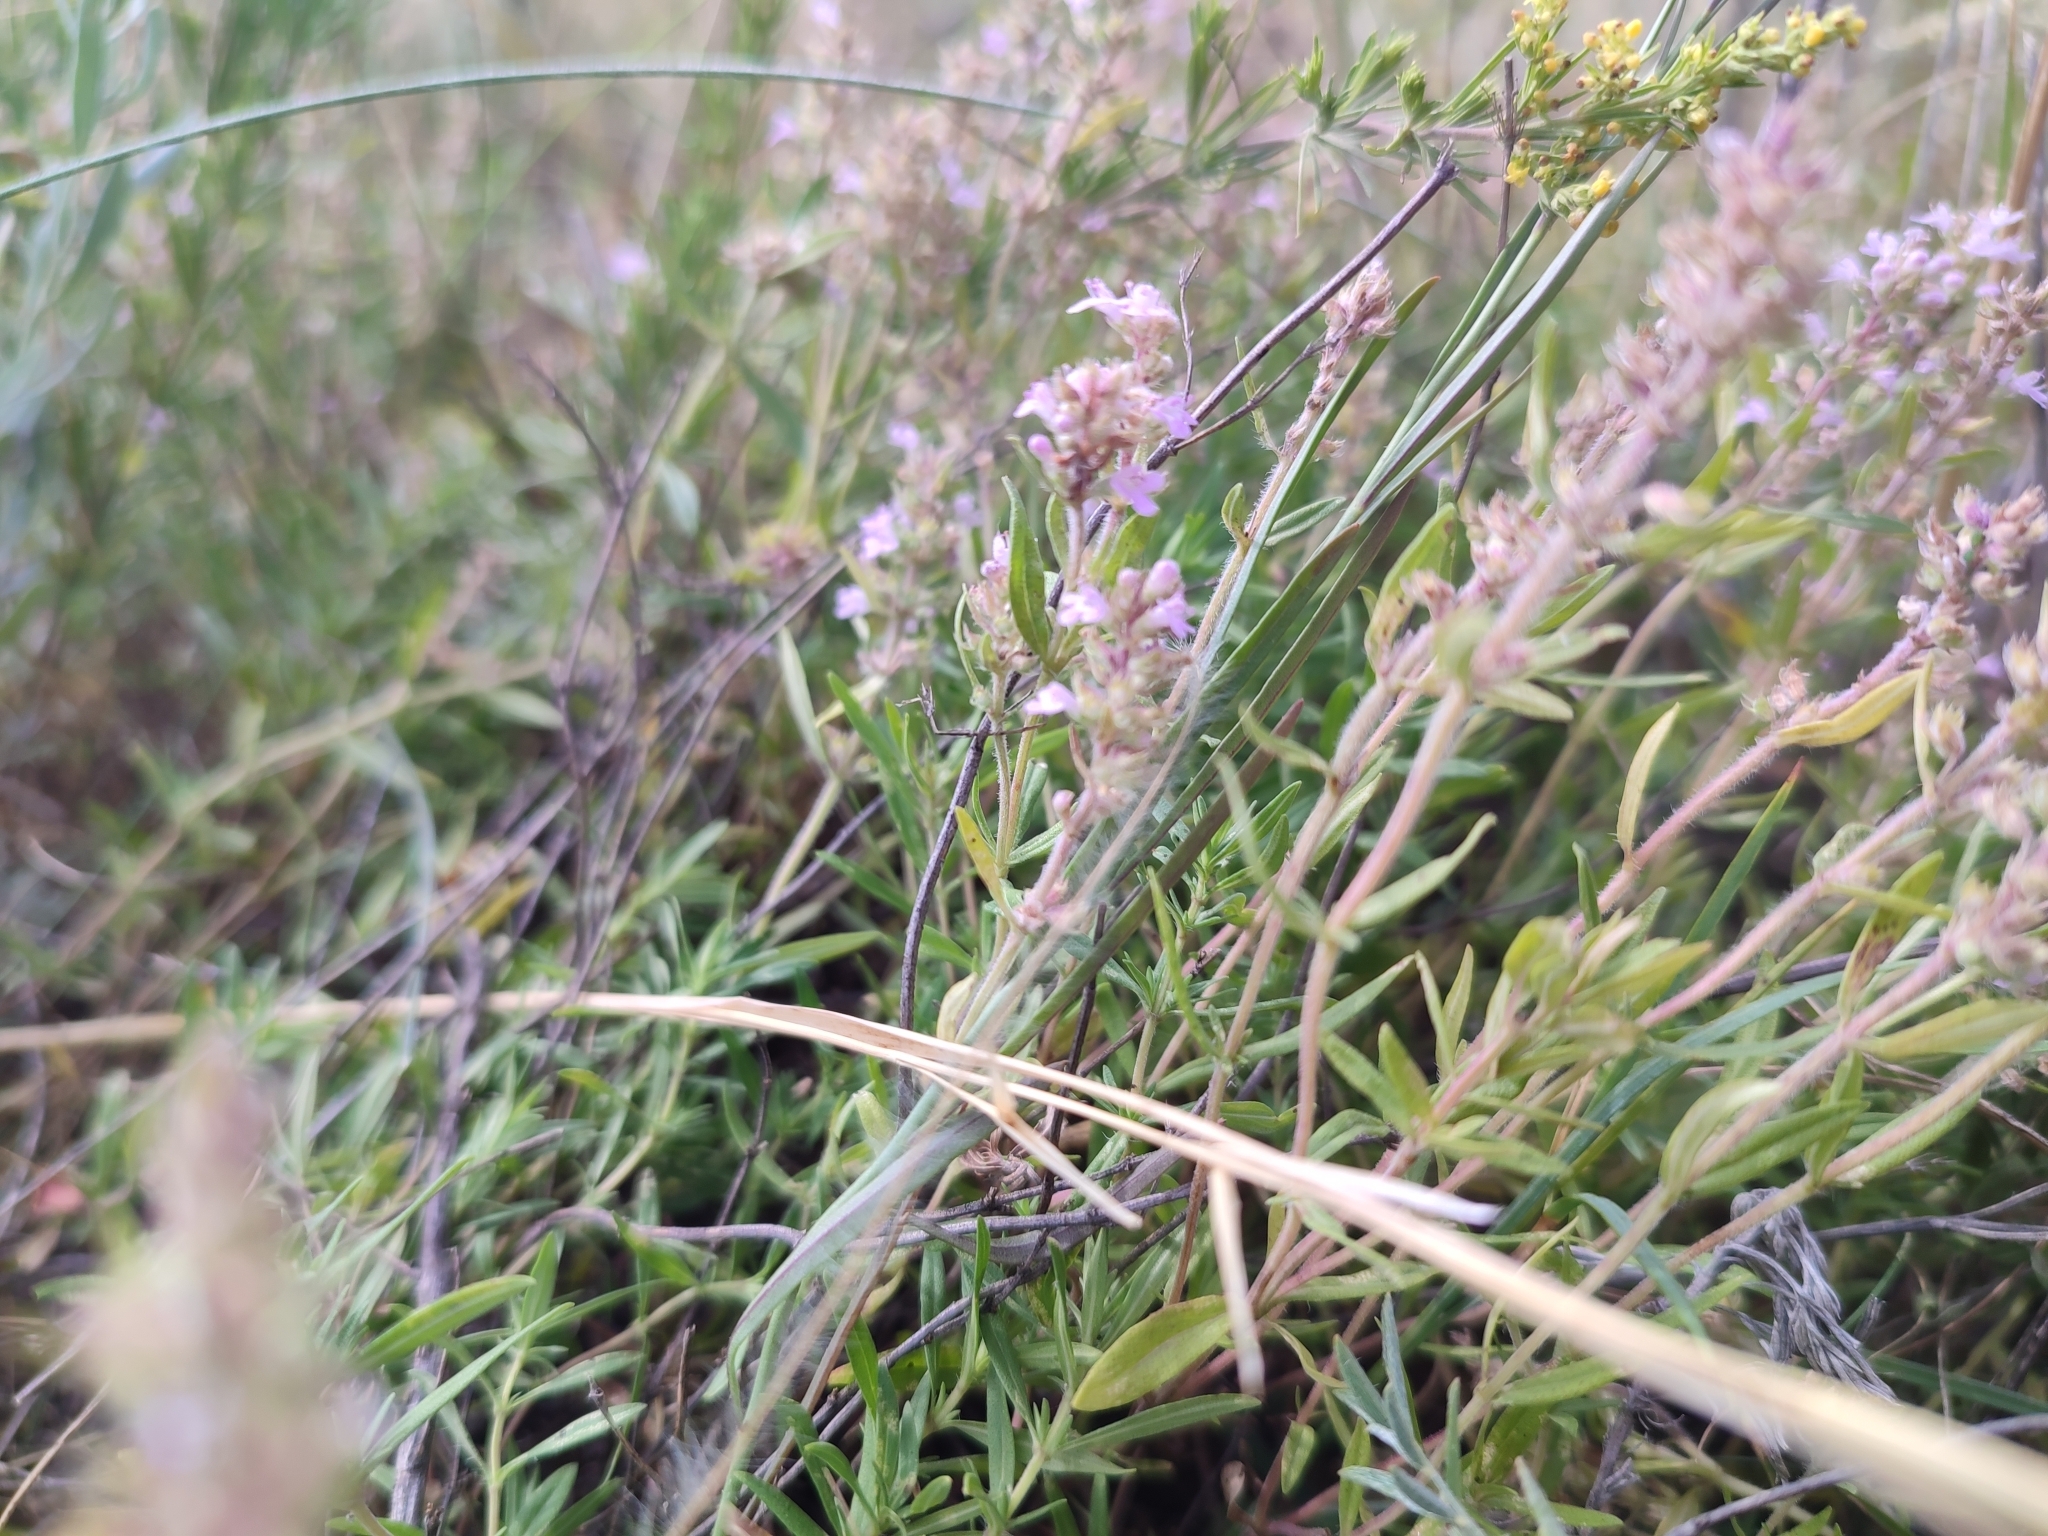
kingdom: Plantae
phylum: Tracheophyta
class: Magnoliopsida
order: Lamiales
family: Lamiaceae
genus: Thymus
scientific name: Thymus pannonicus
